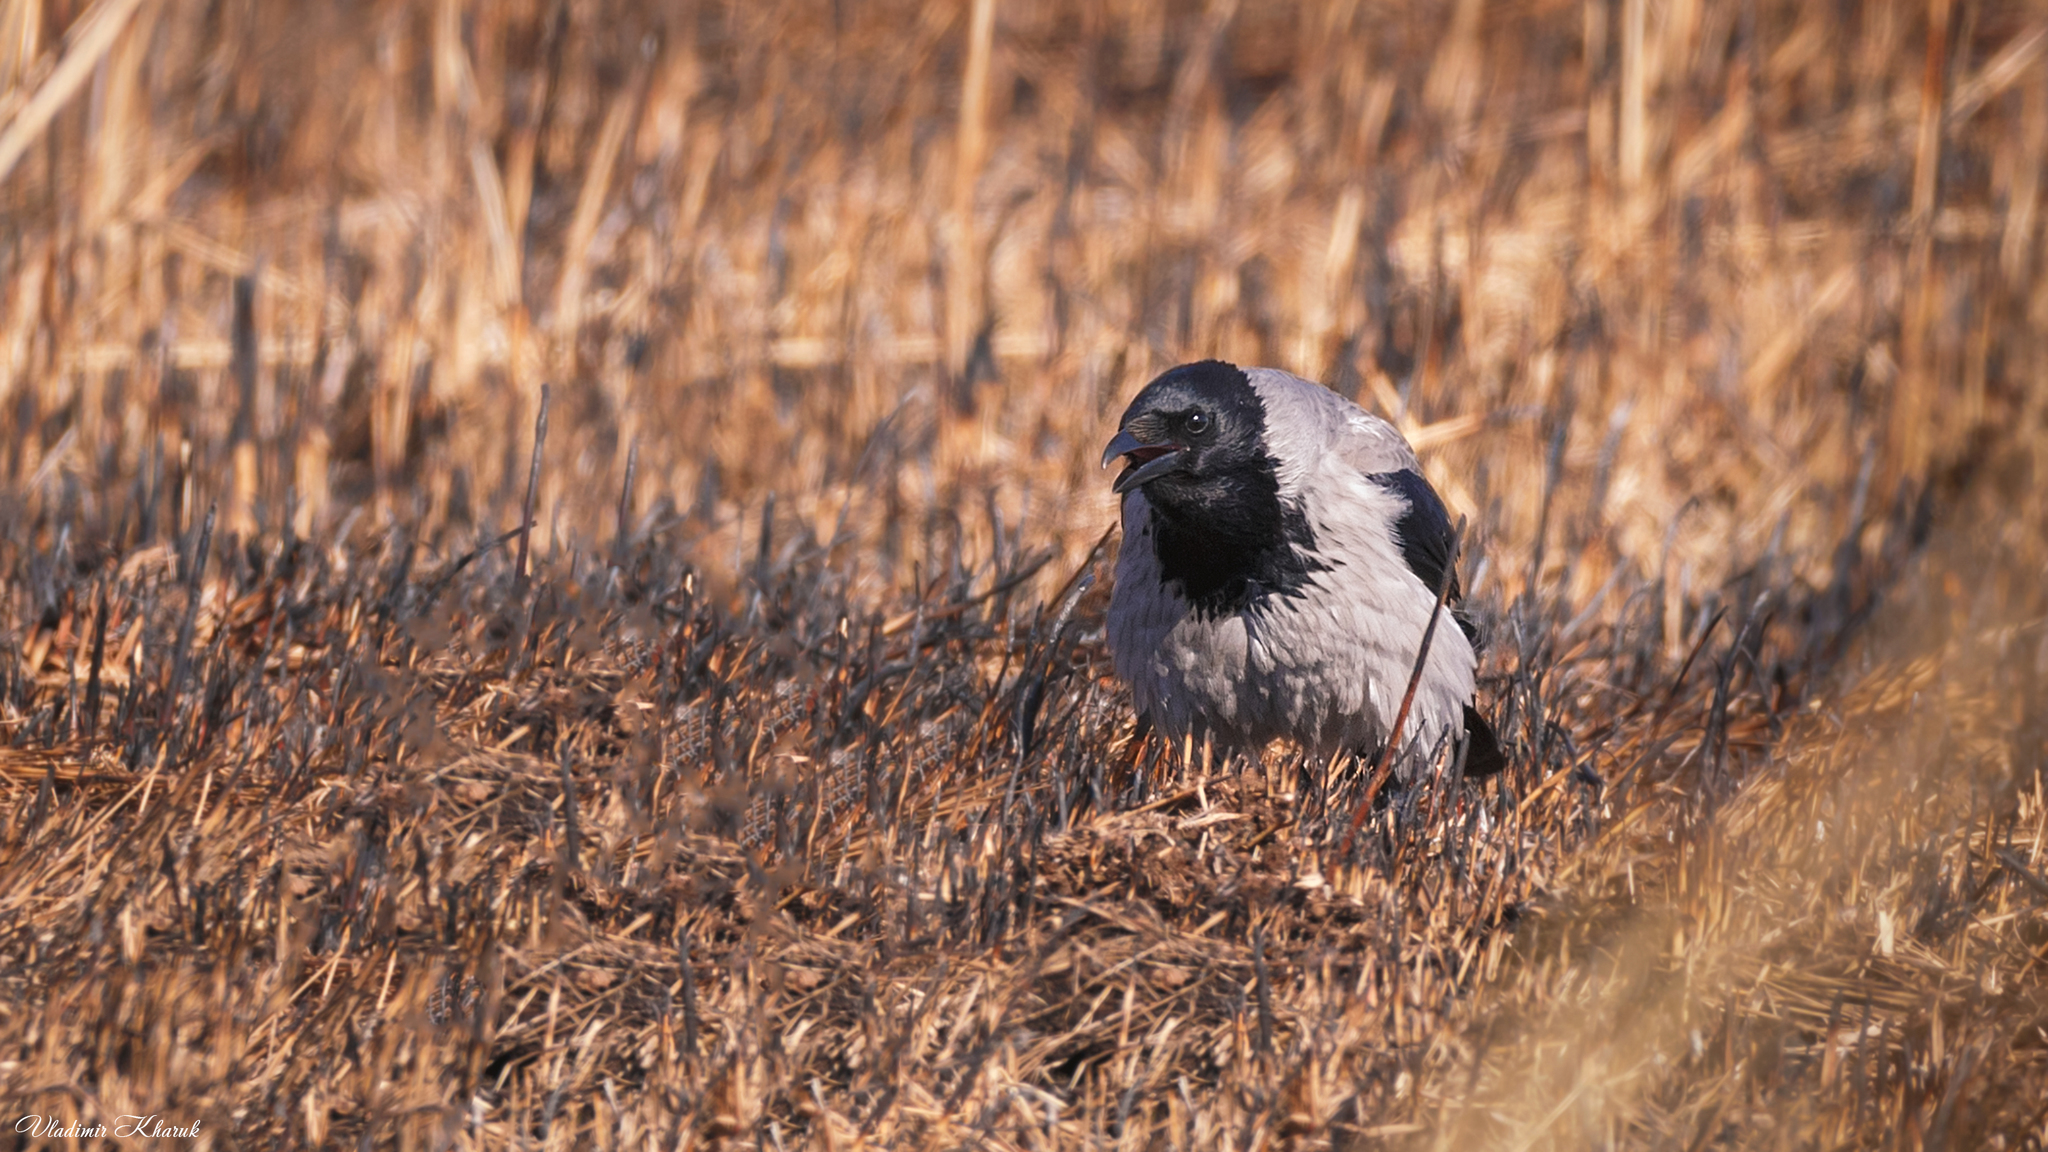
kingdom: Animalia
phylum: Chordata
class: Aves
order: Passeriformes
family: Corvidae
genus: Corvus
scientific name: Corvus cornix
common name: Hooded crow
